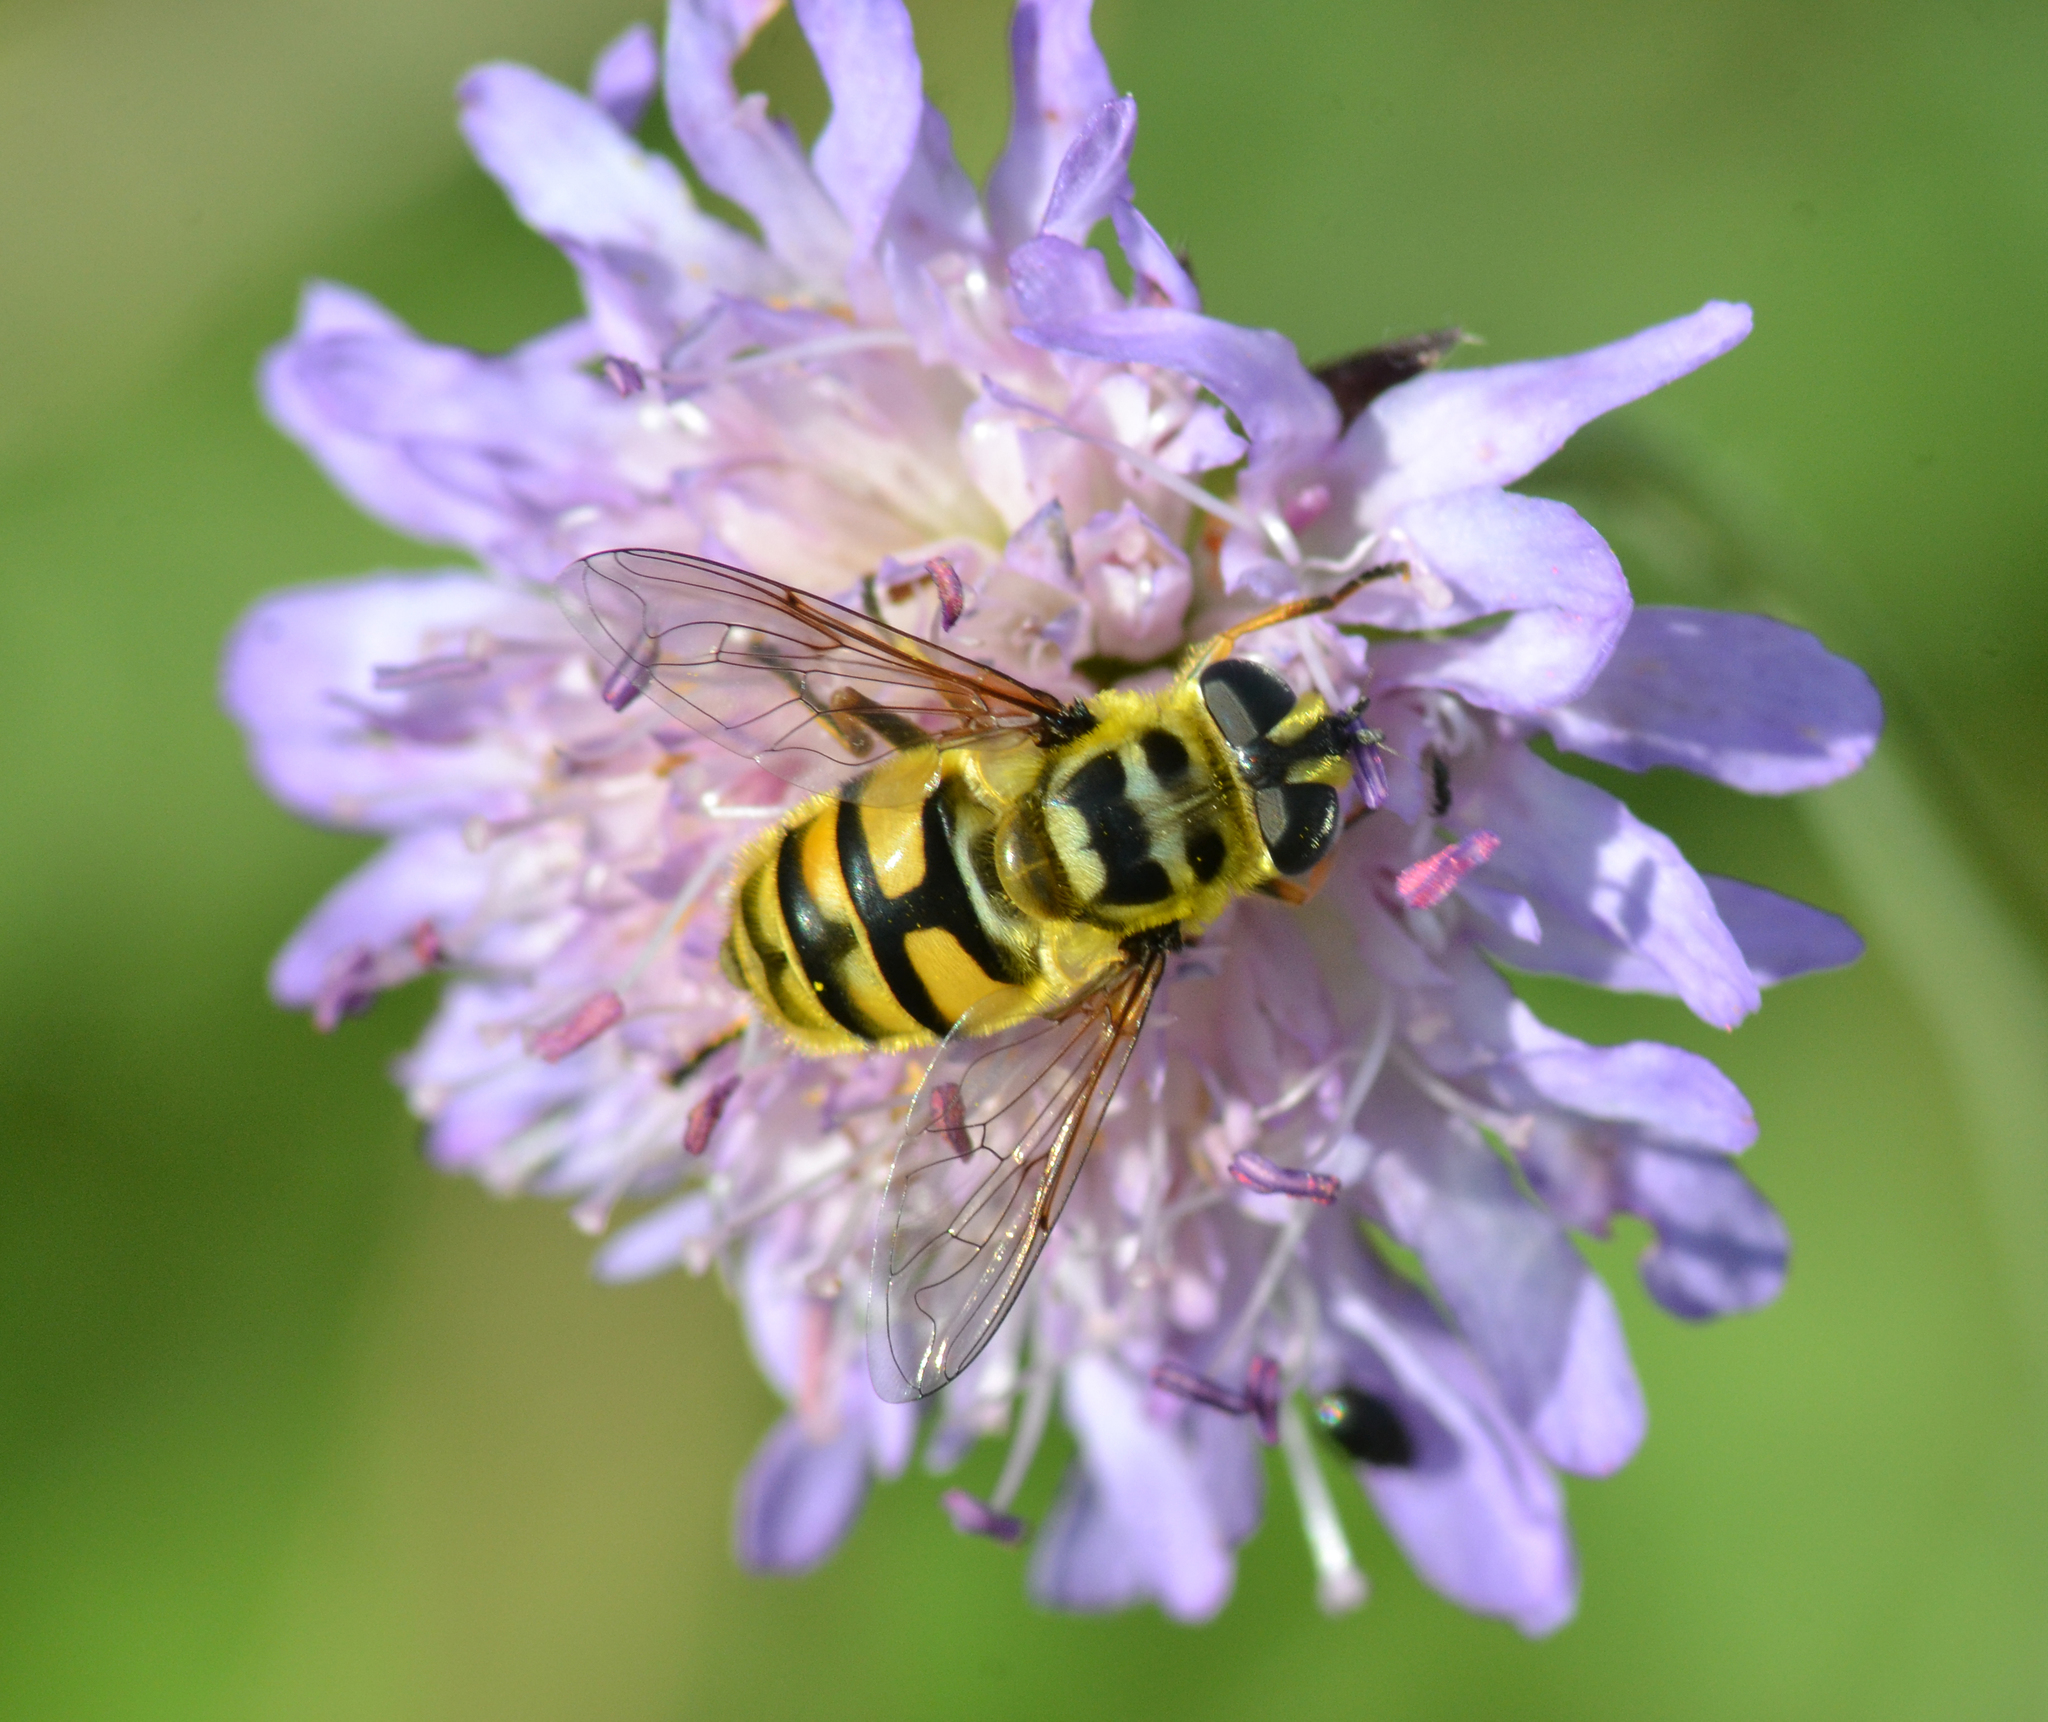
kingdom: Animalia
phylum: Arthropoda
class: Insecta
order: Diptera
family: Syrphidae
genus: Myathropa
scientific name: Myathropa florea
